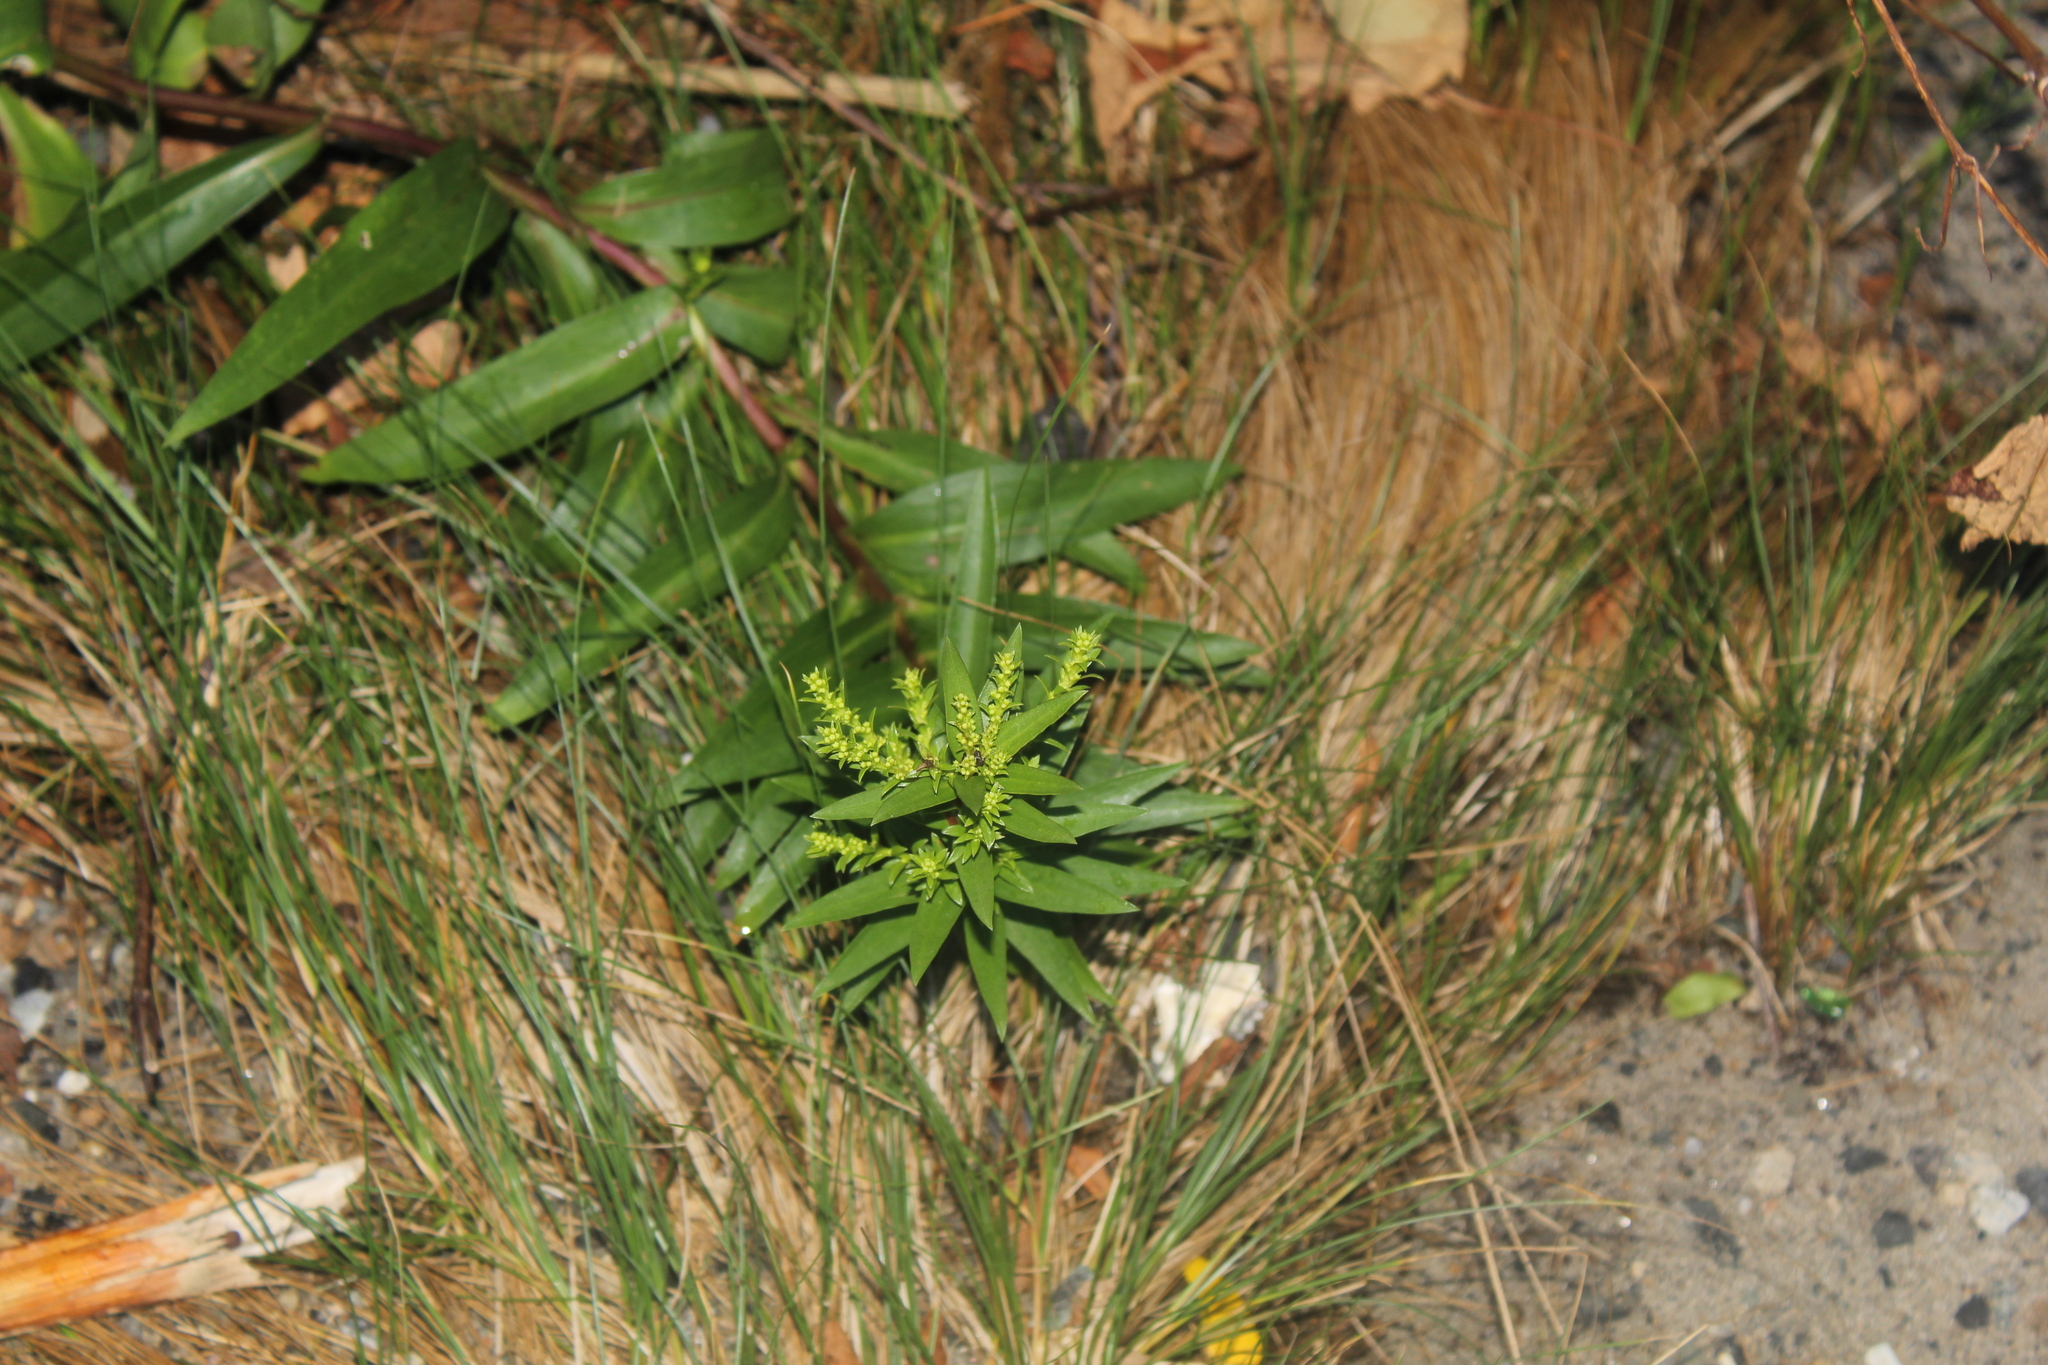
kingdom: Plantae
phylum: Tracheophyta
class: Magnoliopsida
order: Asterales
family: Asteraceae
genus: Solidago
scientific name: Solidago sempervirens
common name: Salt-marsh goldenrod
